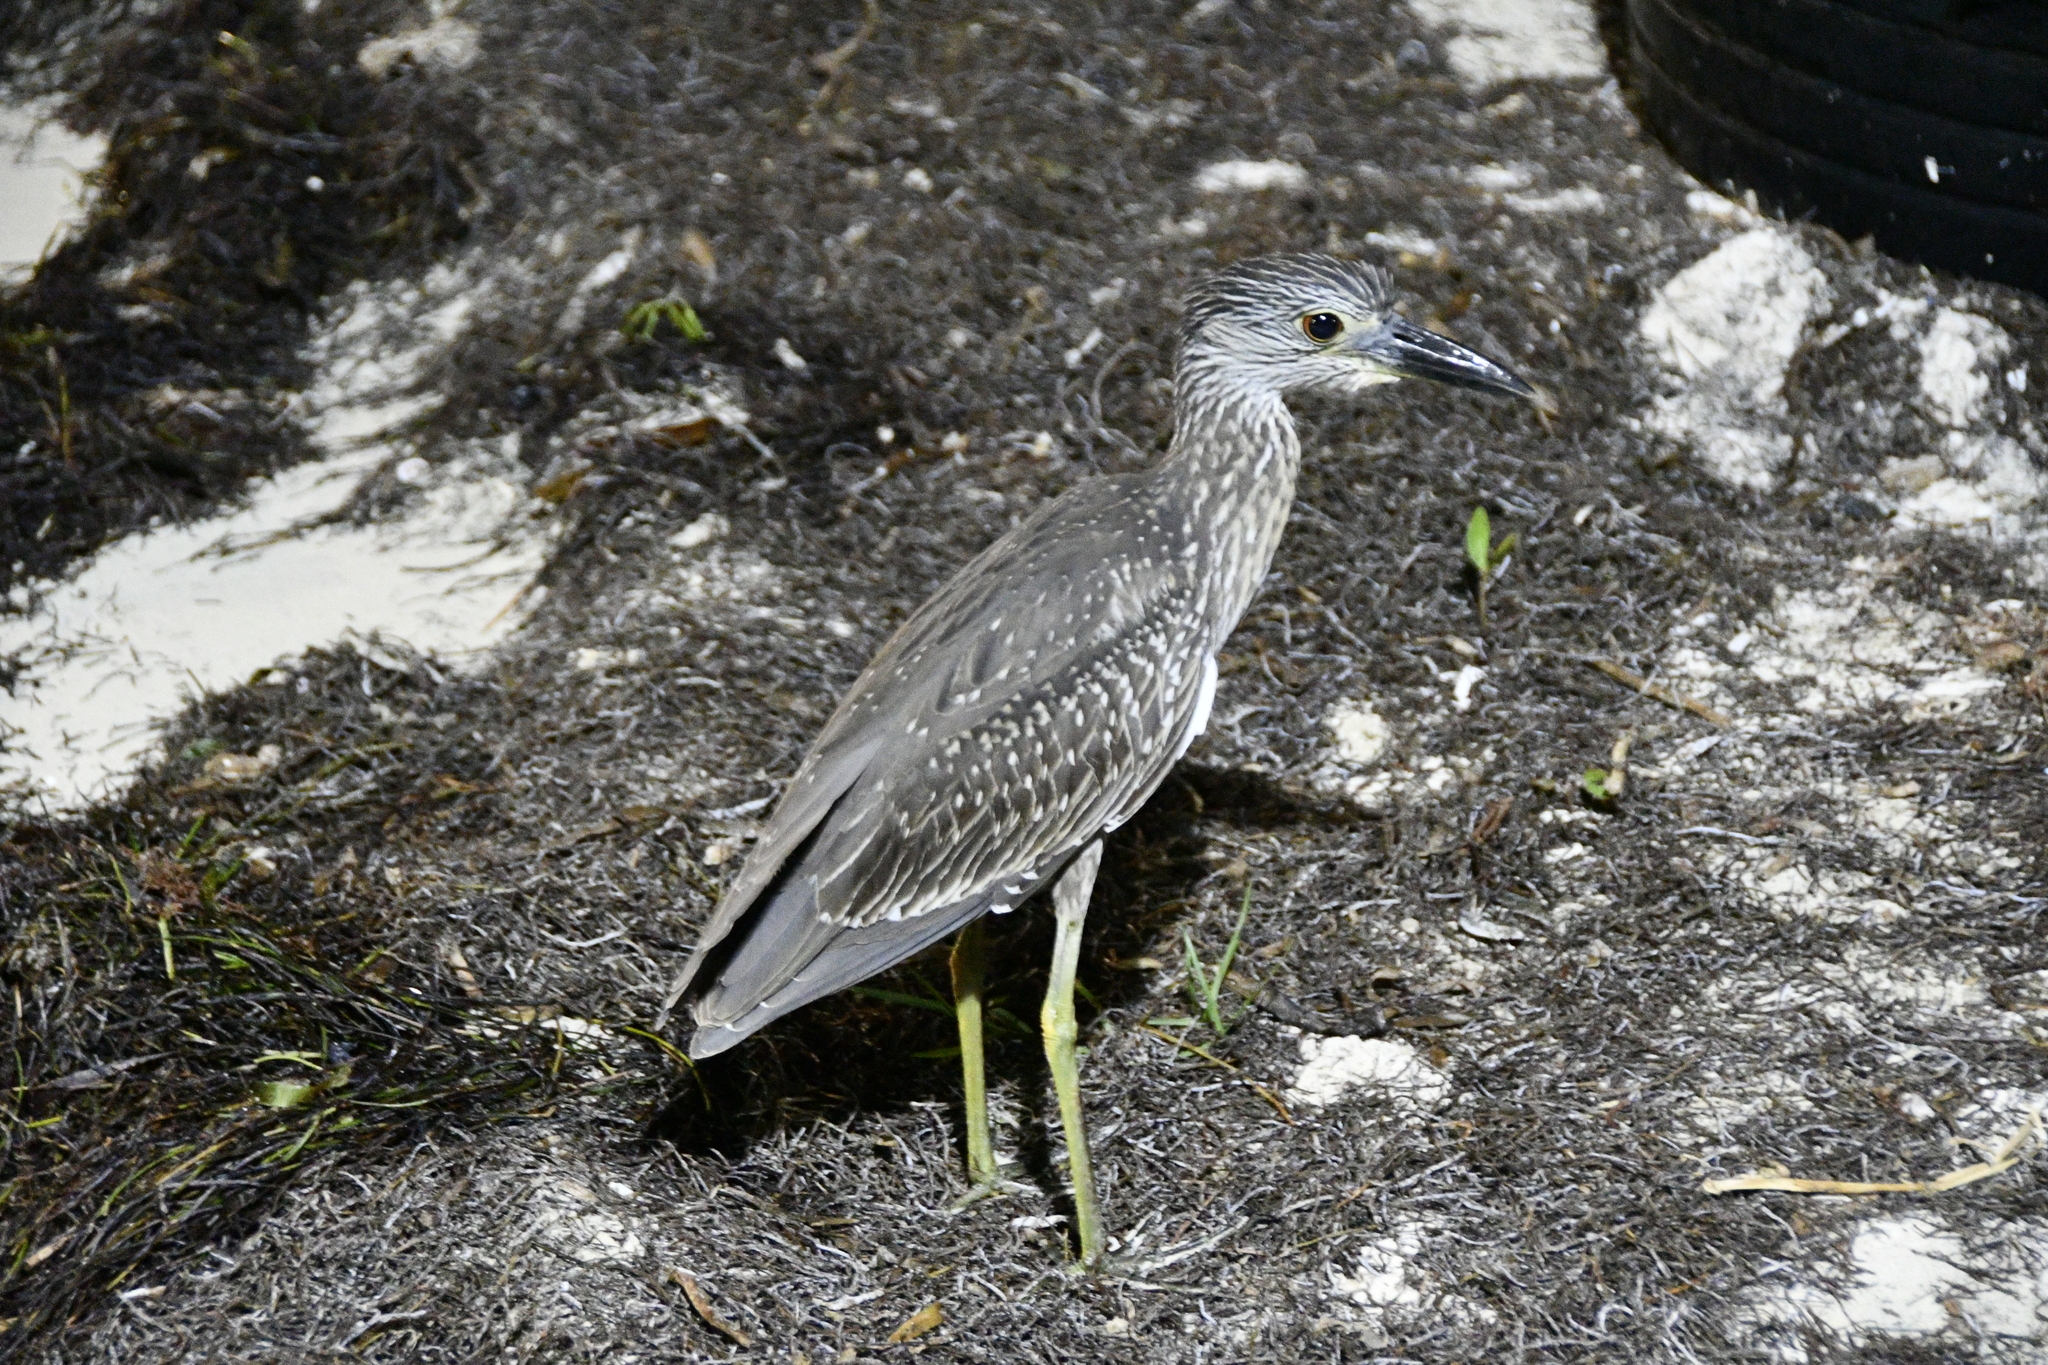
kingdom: Animalia
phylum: Chordata
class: Aves
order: Pelecaniformes
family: Ardeidae
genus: Nyctanassa
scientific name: Nyctanassa violacea
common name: Yellow-crowned night heron
